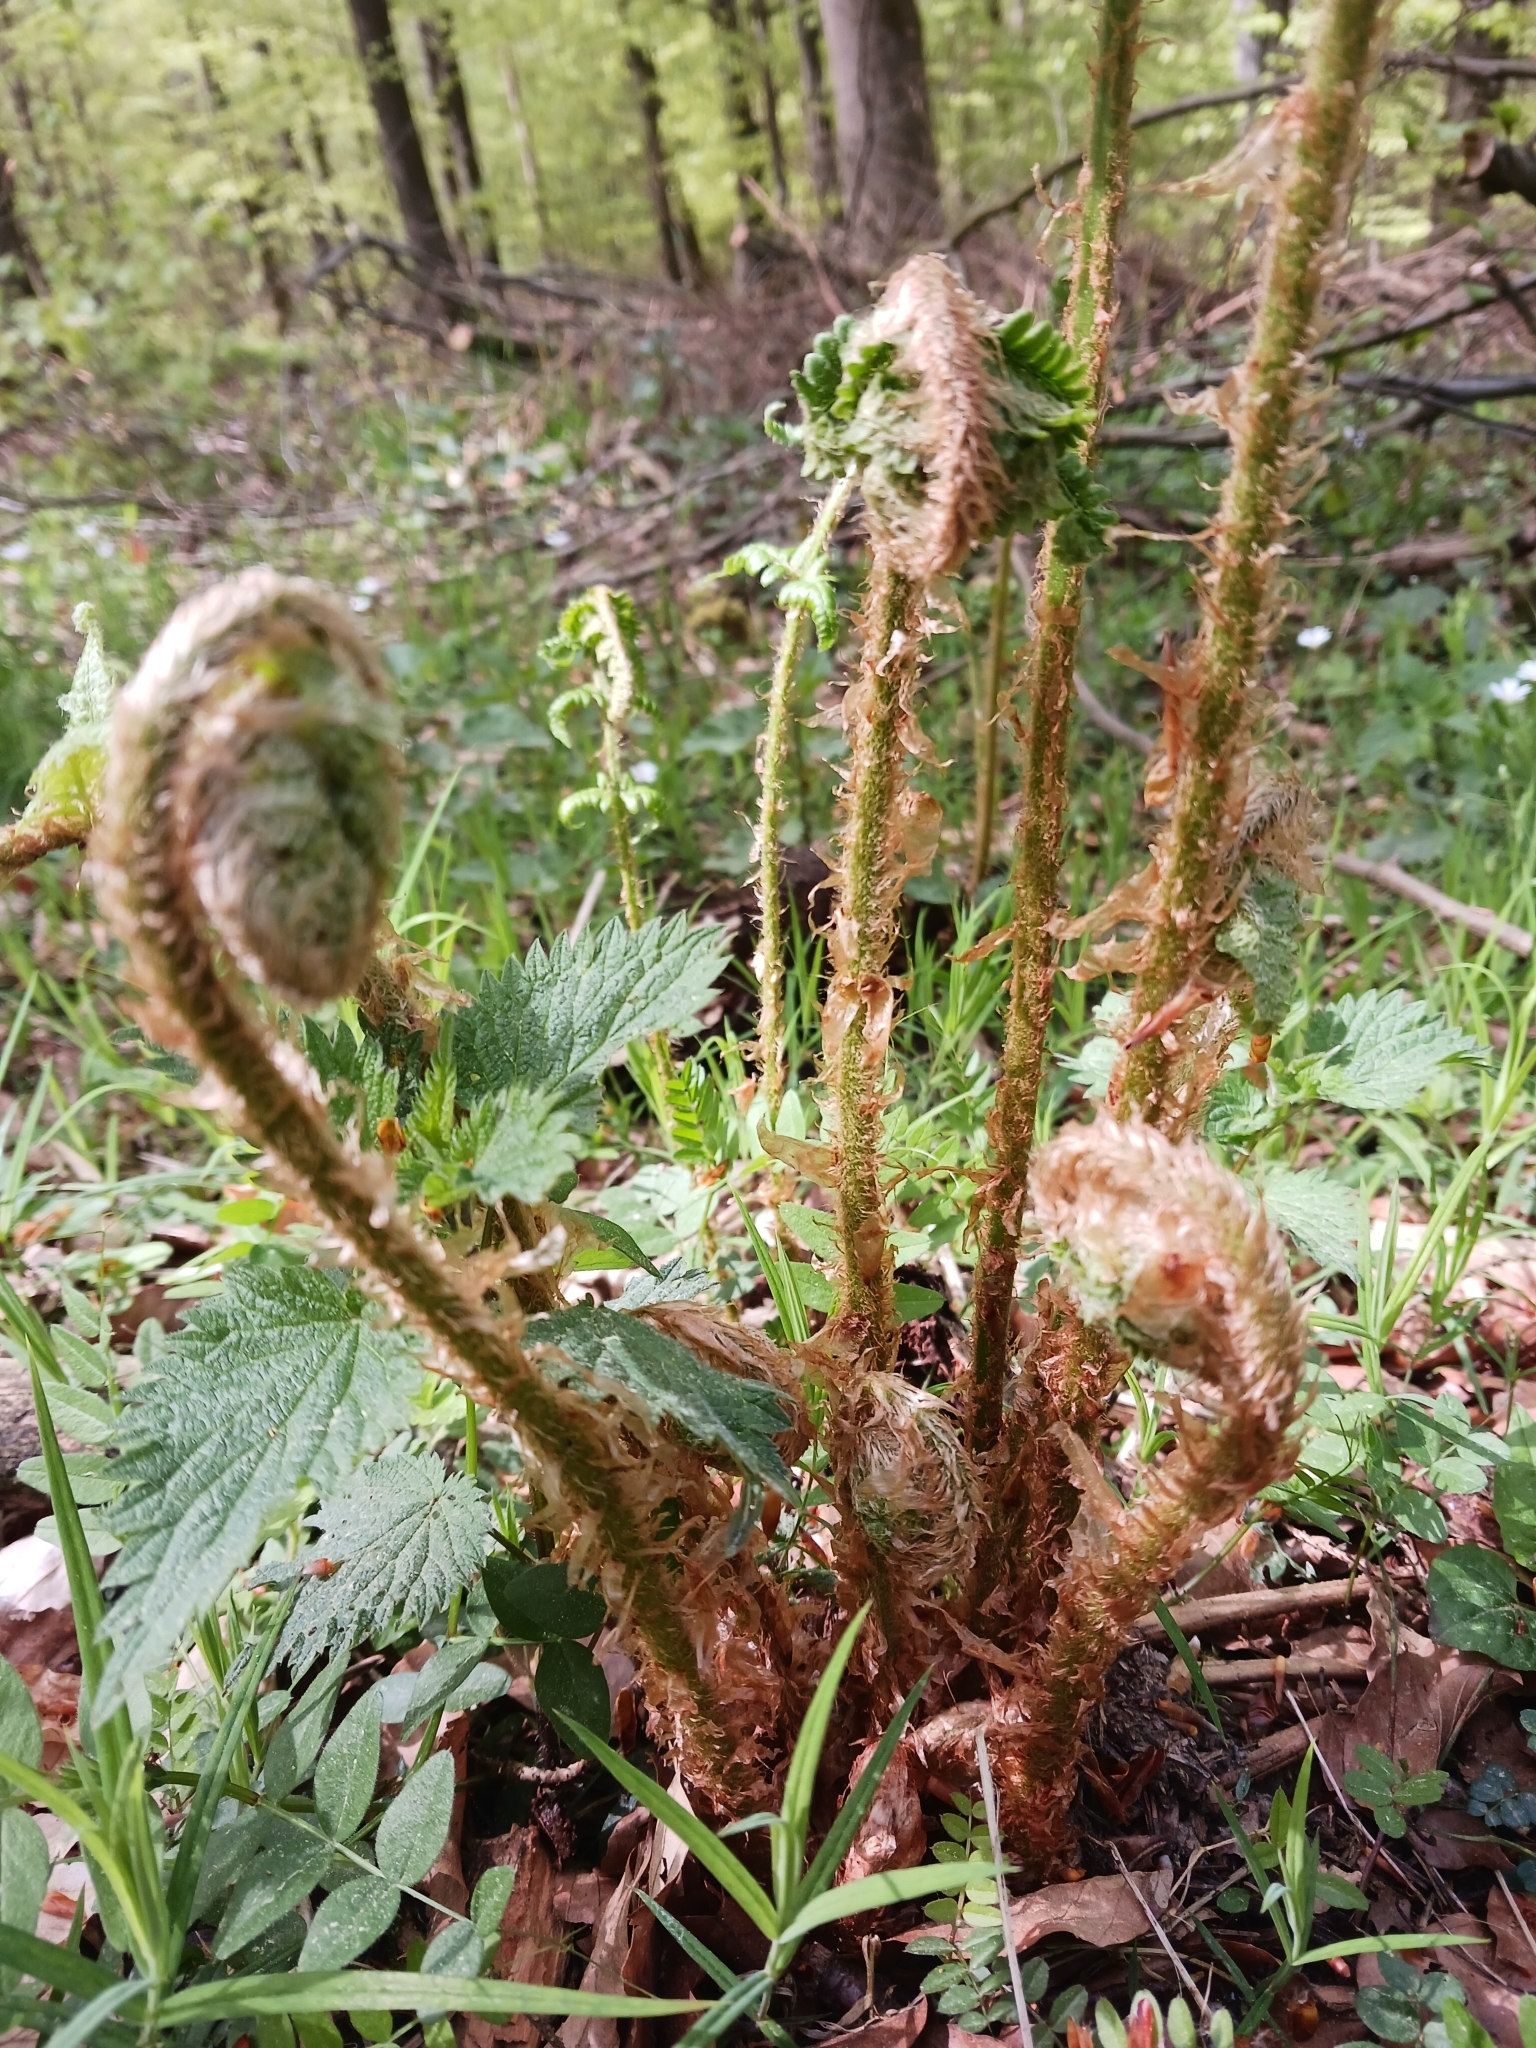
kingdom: Plantae
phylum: Tracheophyta
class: Polypodiopsida
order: Polypodiales
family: Dryopteridaceae
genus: Dryopteris
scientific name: Dryopteris filix-mas
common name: Male fern
